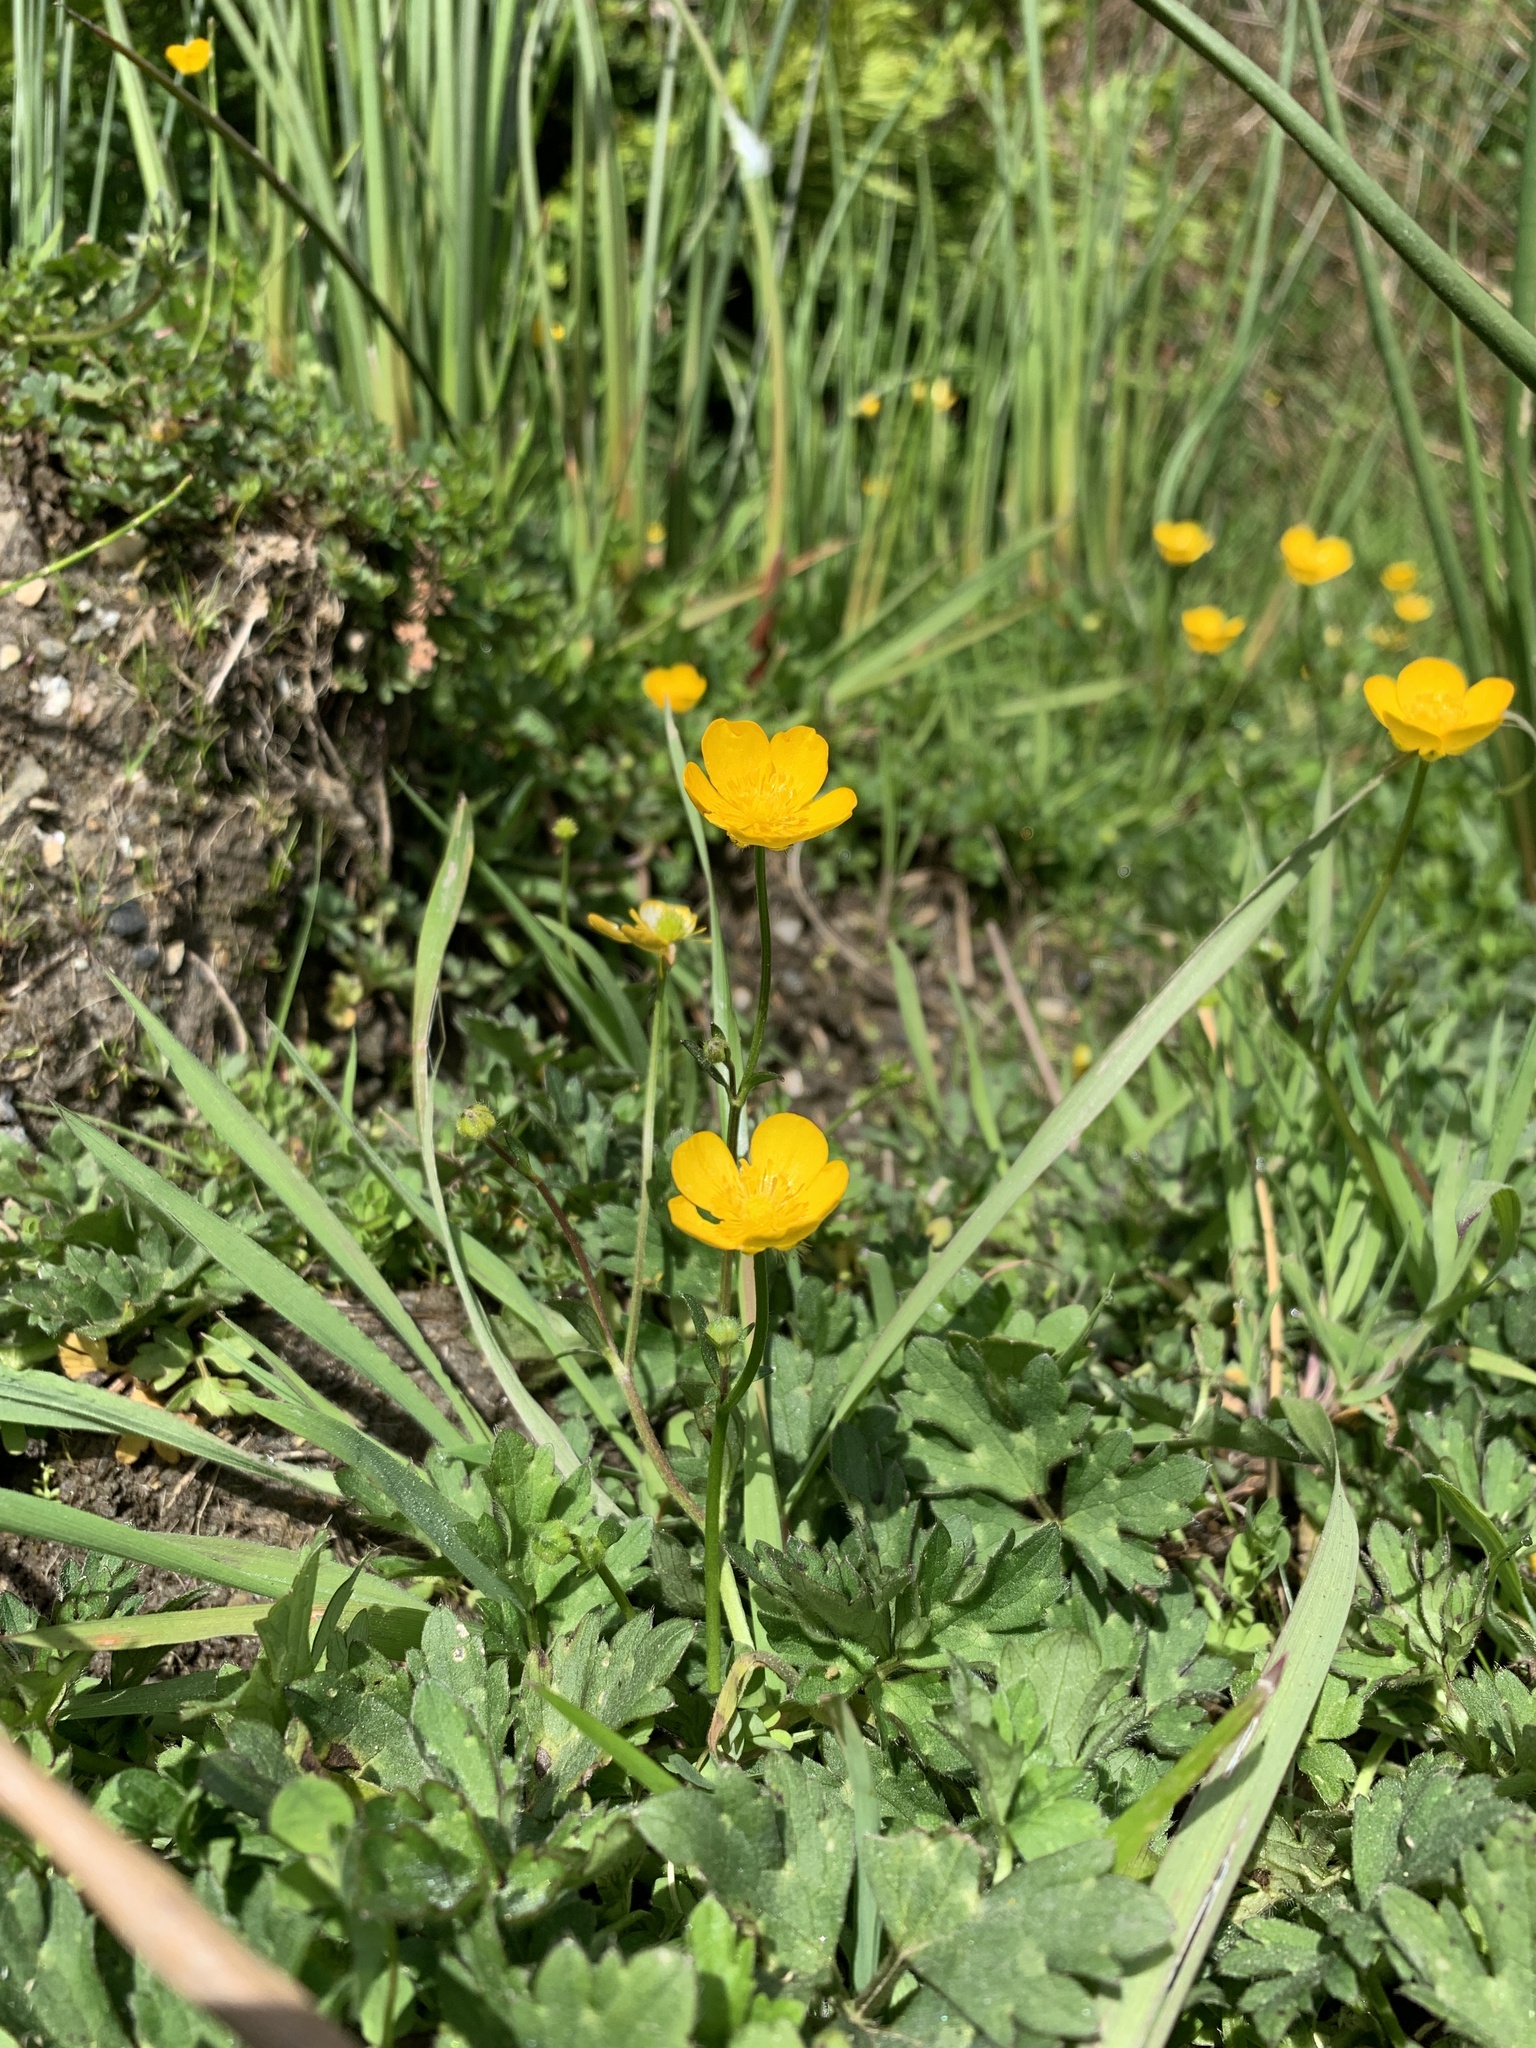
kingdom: Plantae
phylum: Tracheophyta
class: Magnoliopsida
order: Ranunculales
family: Ranunculaceae
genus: Ranunculus
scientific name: Ranunculus repens
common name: Creeping buttercup
